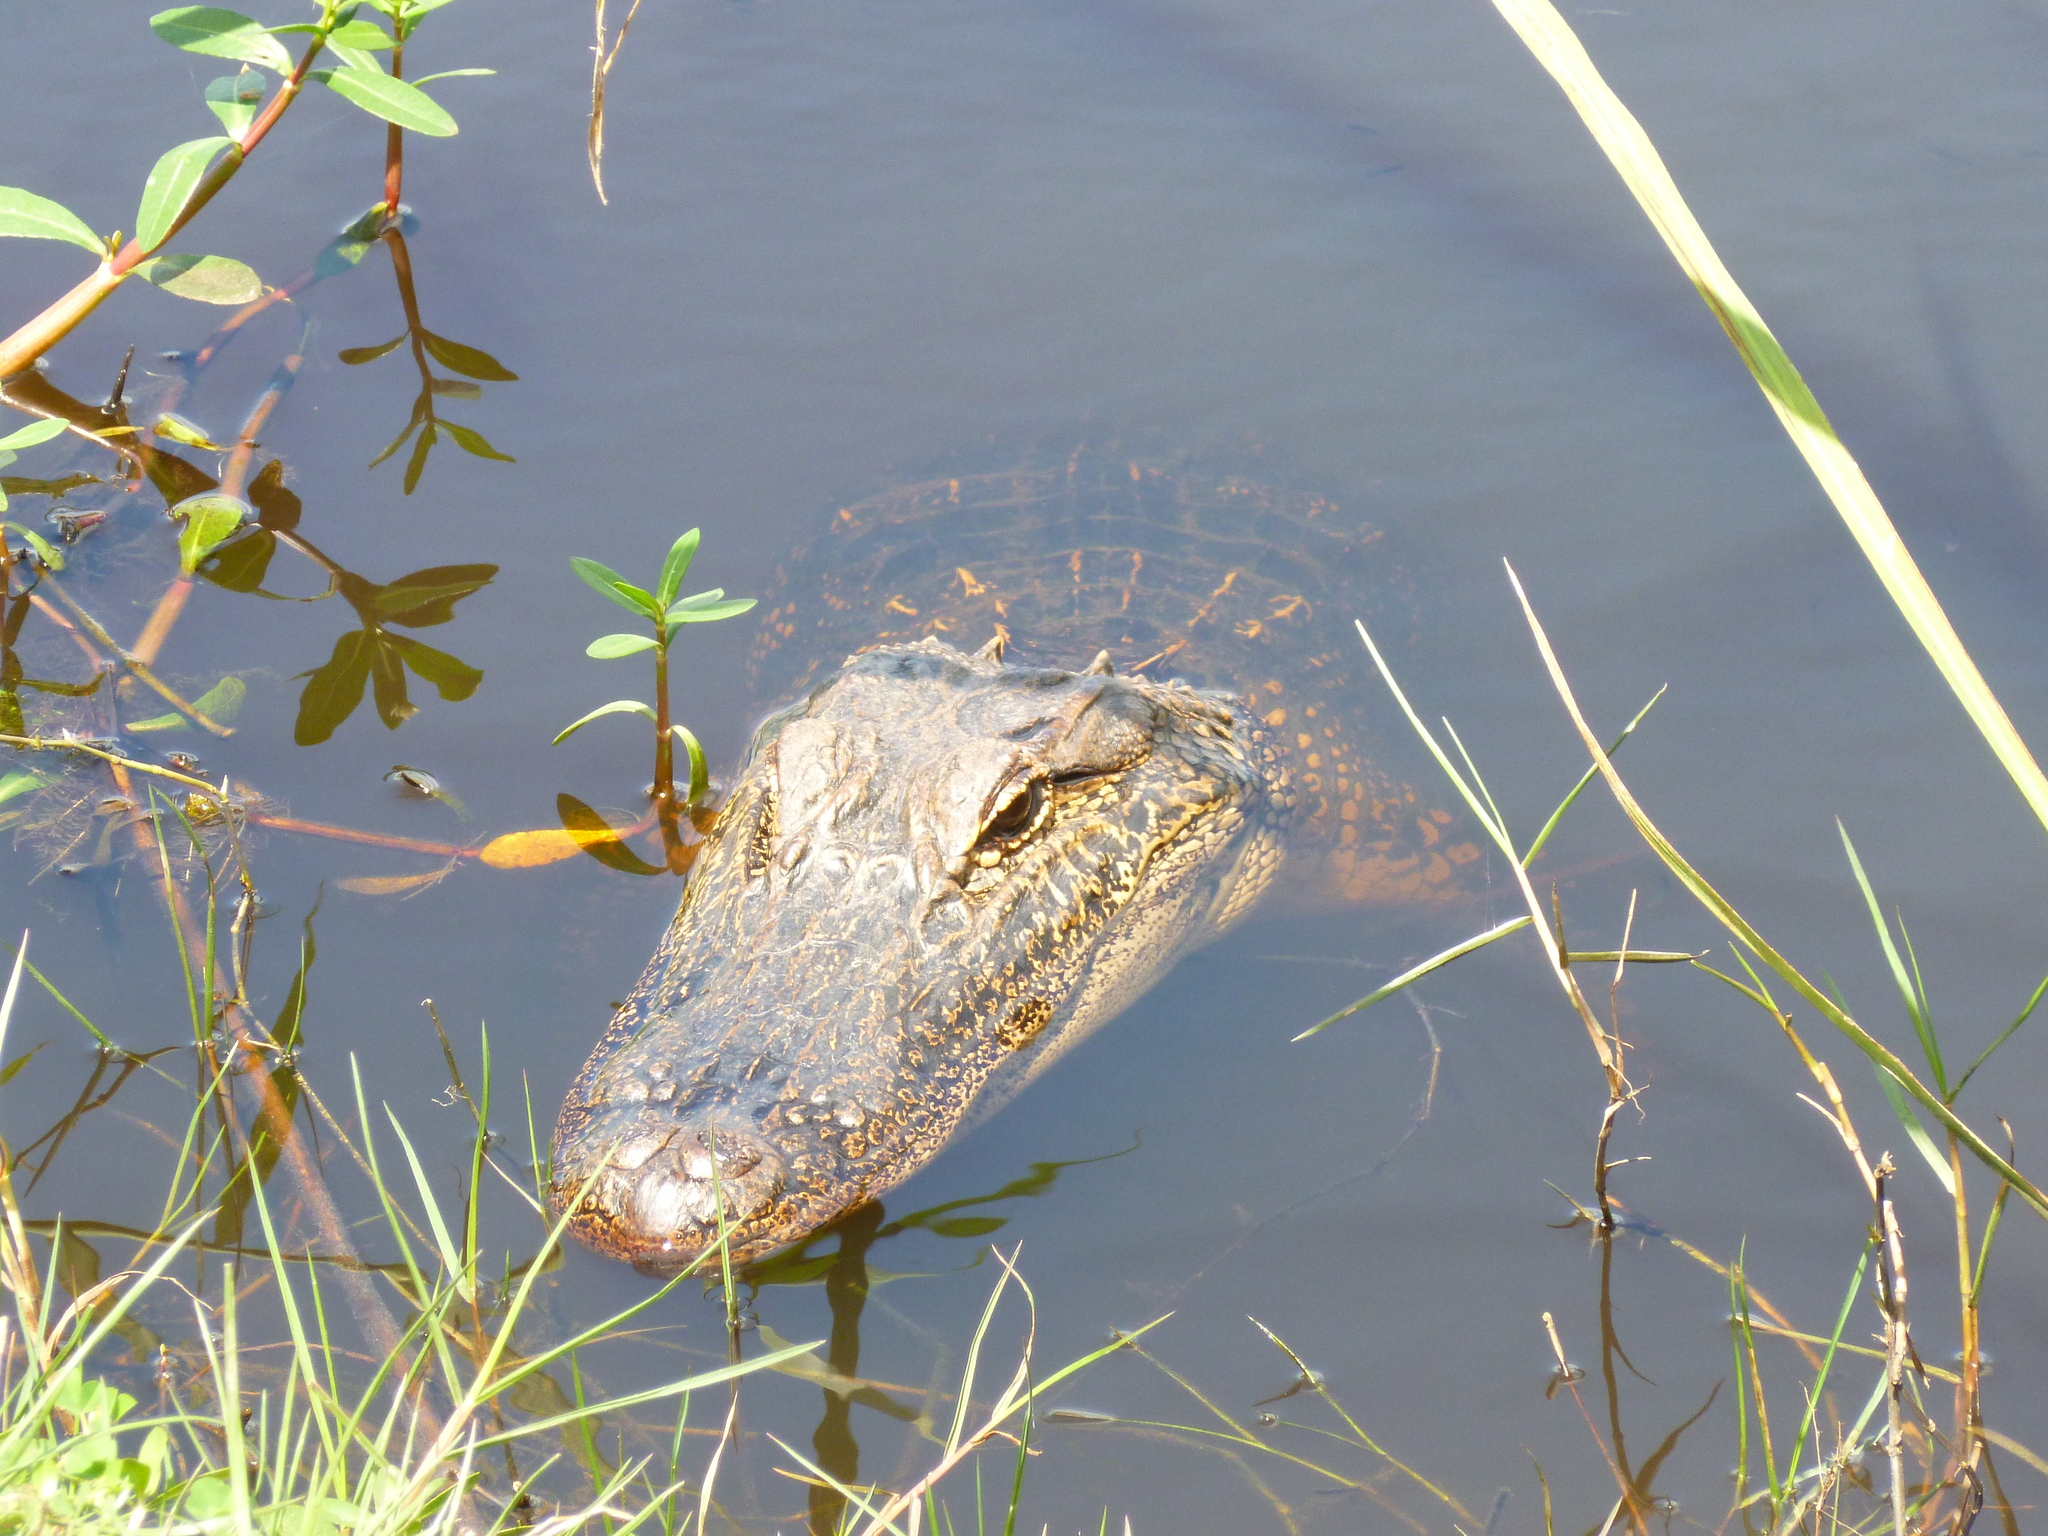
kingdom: Animalia
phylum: Chordata
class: Crocodylia
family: Alligatoridae
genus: Alligator
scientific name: Alligator mississippiensis
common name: American alligator
